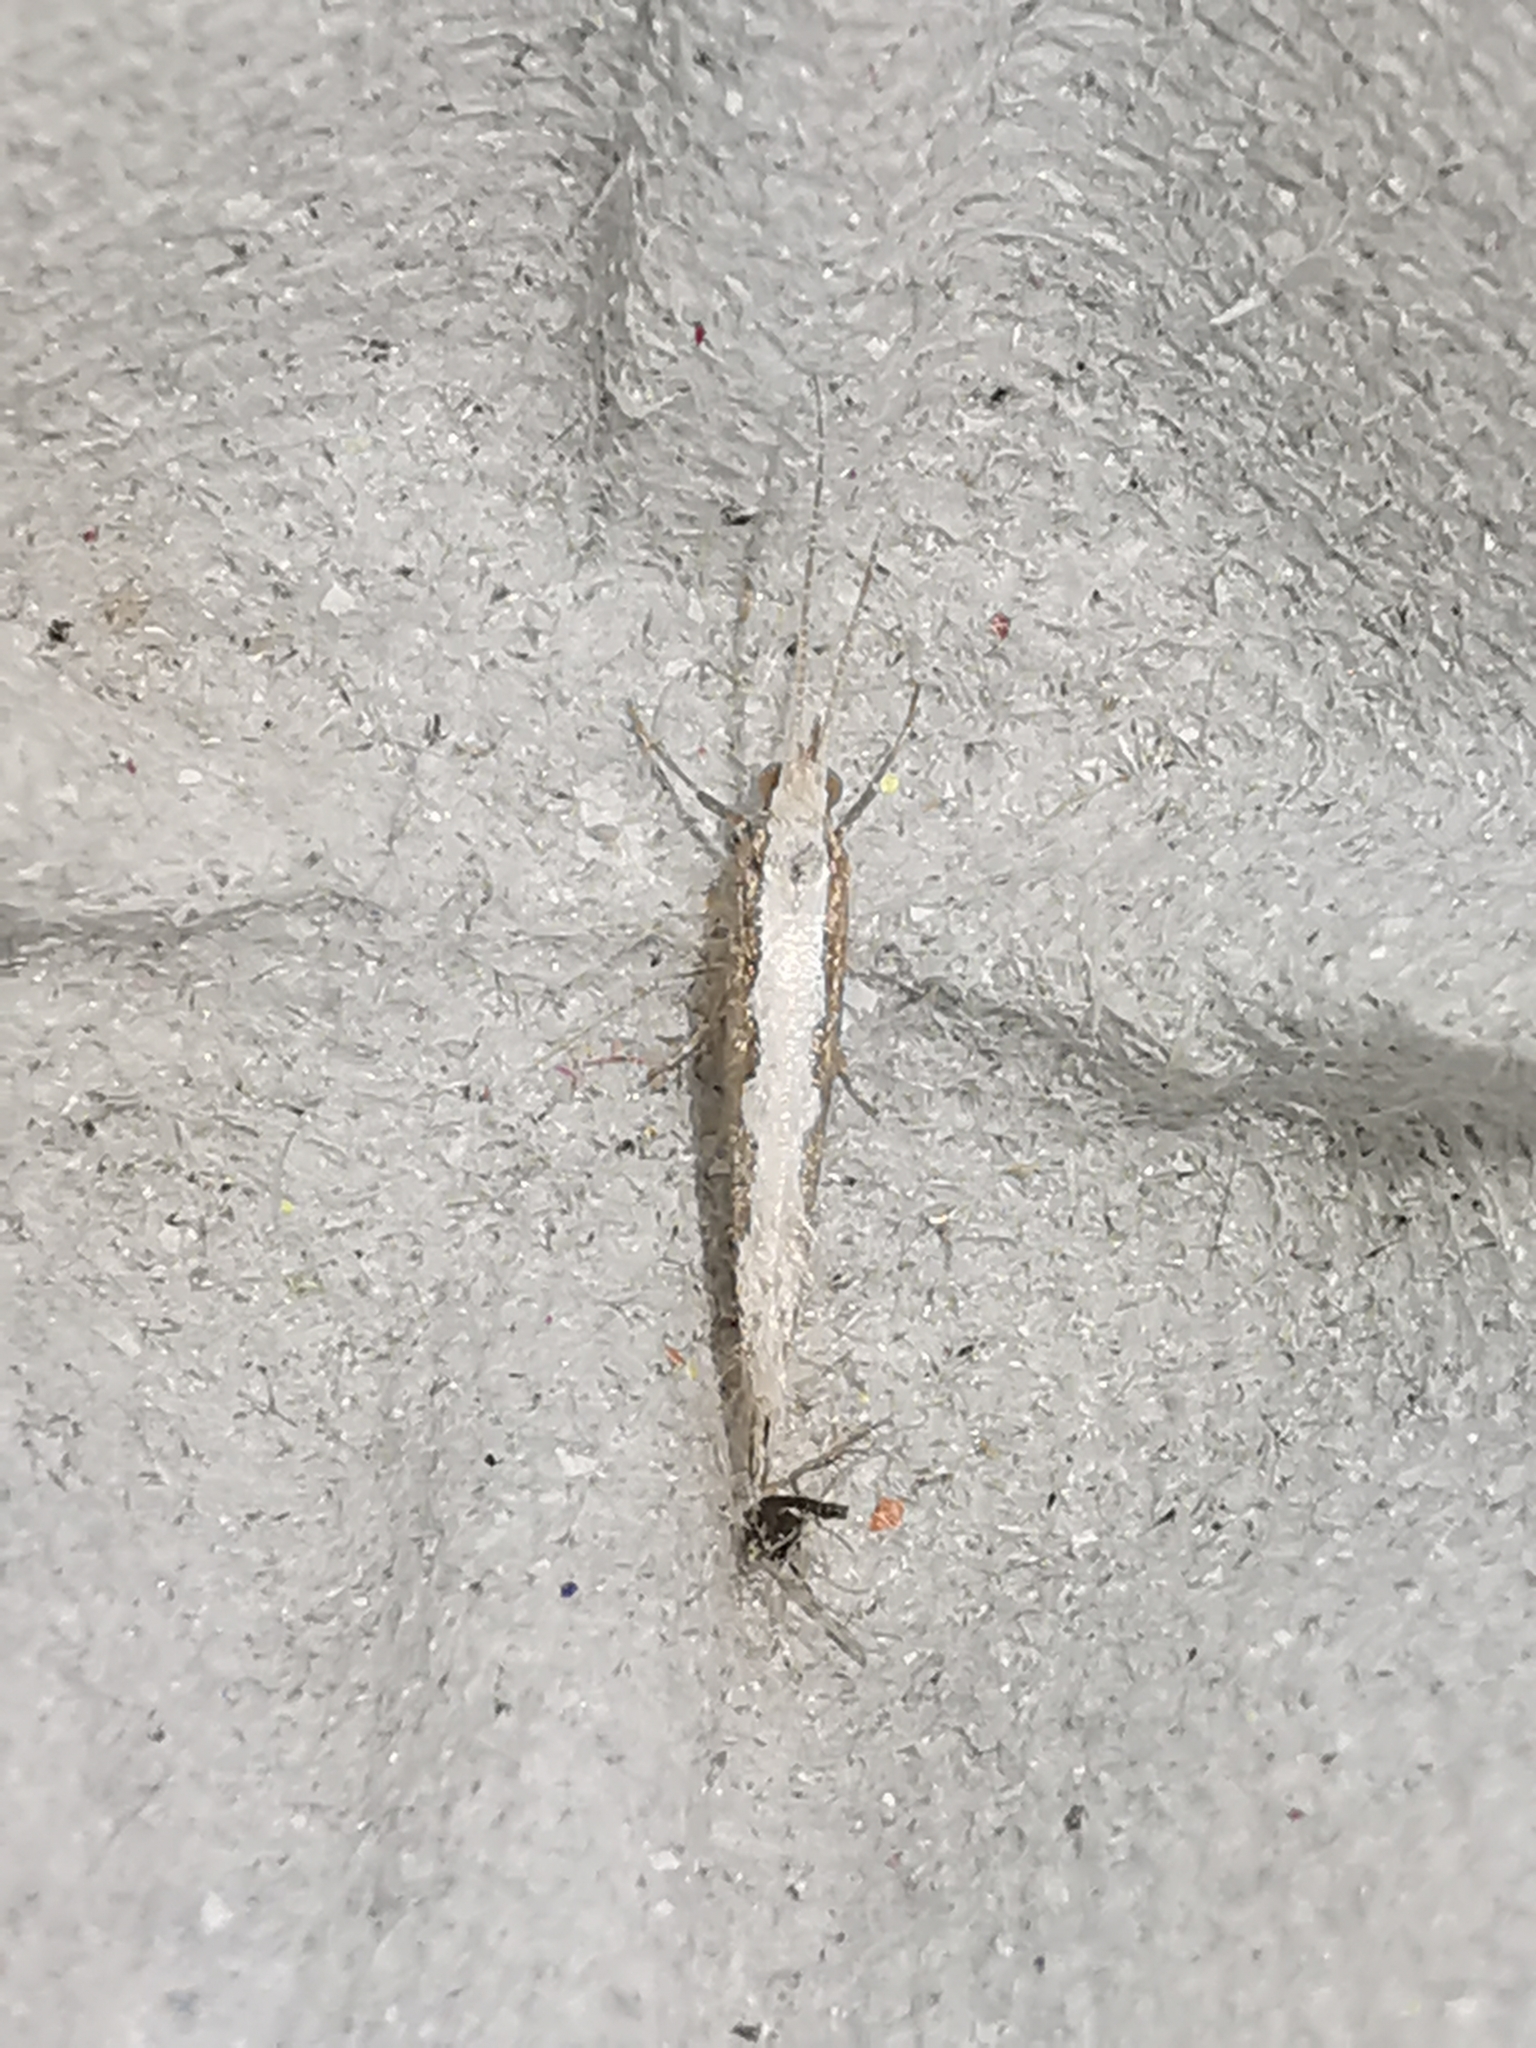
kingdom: Animalia
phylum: Arthropoda
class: Insecta
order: Lepidoptera
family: Plutellidae
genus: Plutella
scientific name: Plutella xylostella
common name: Diamond-back moth
